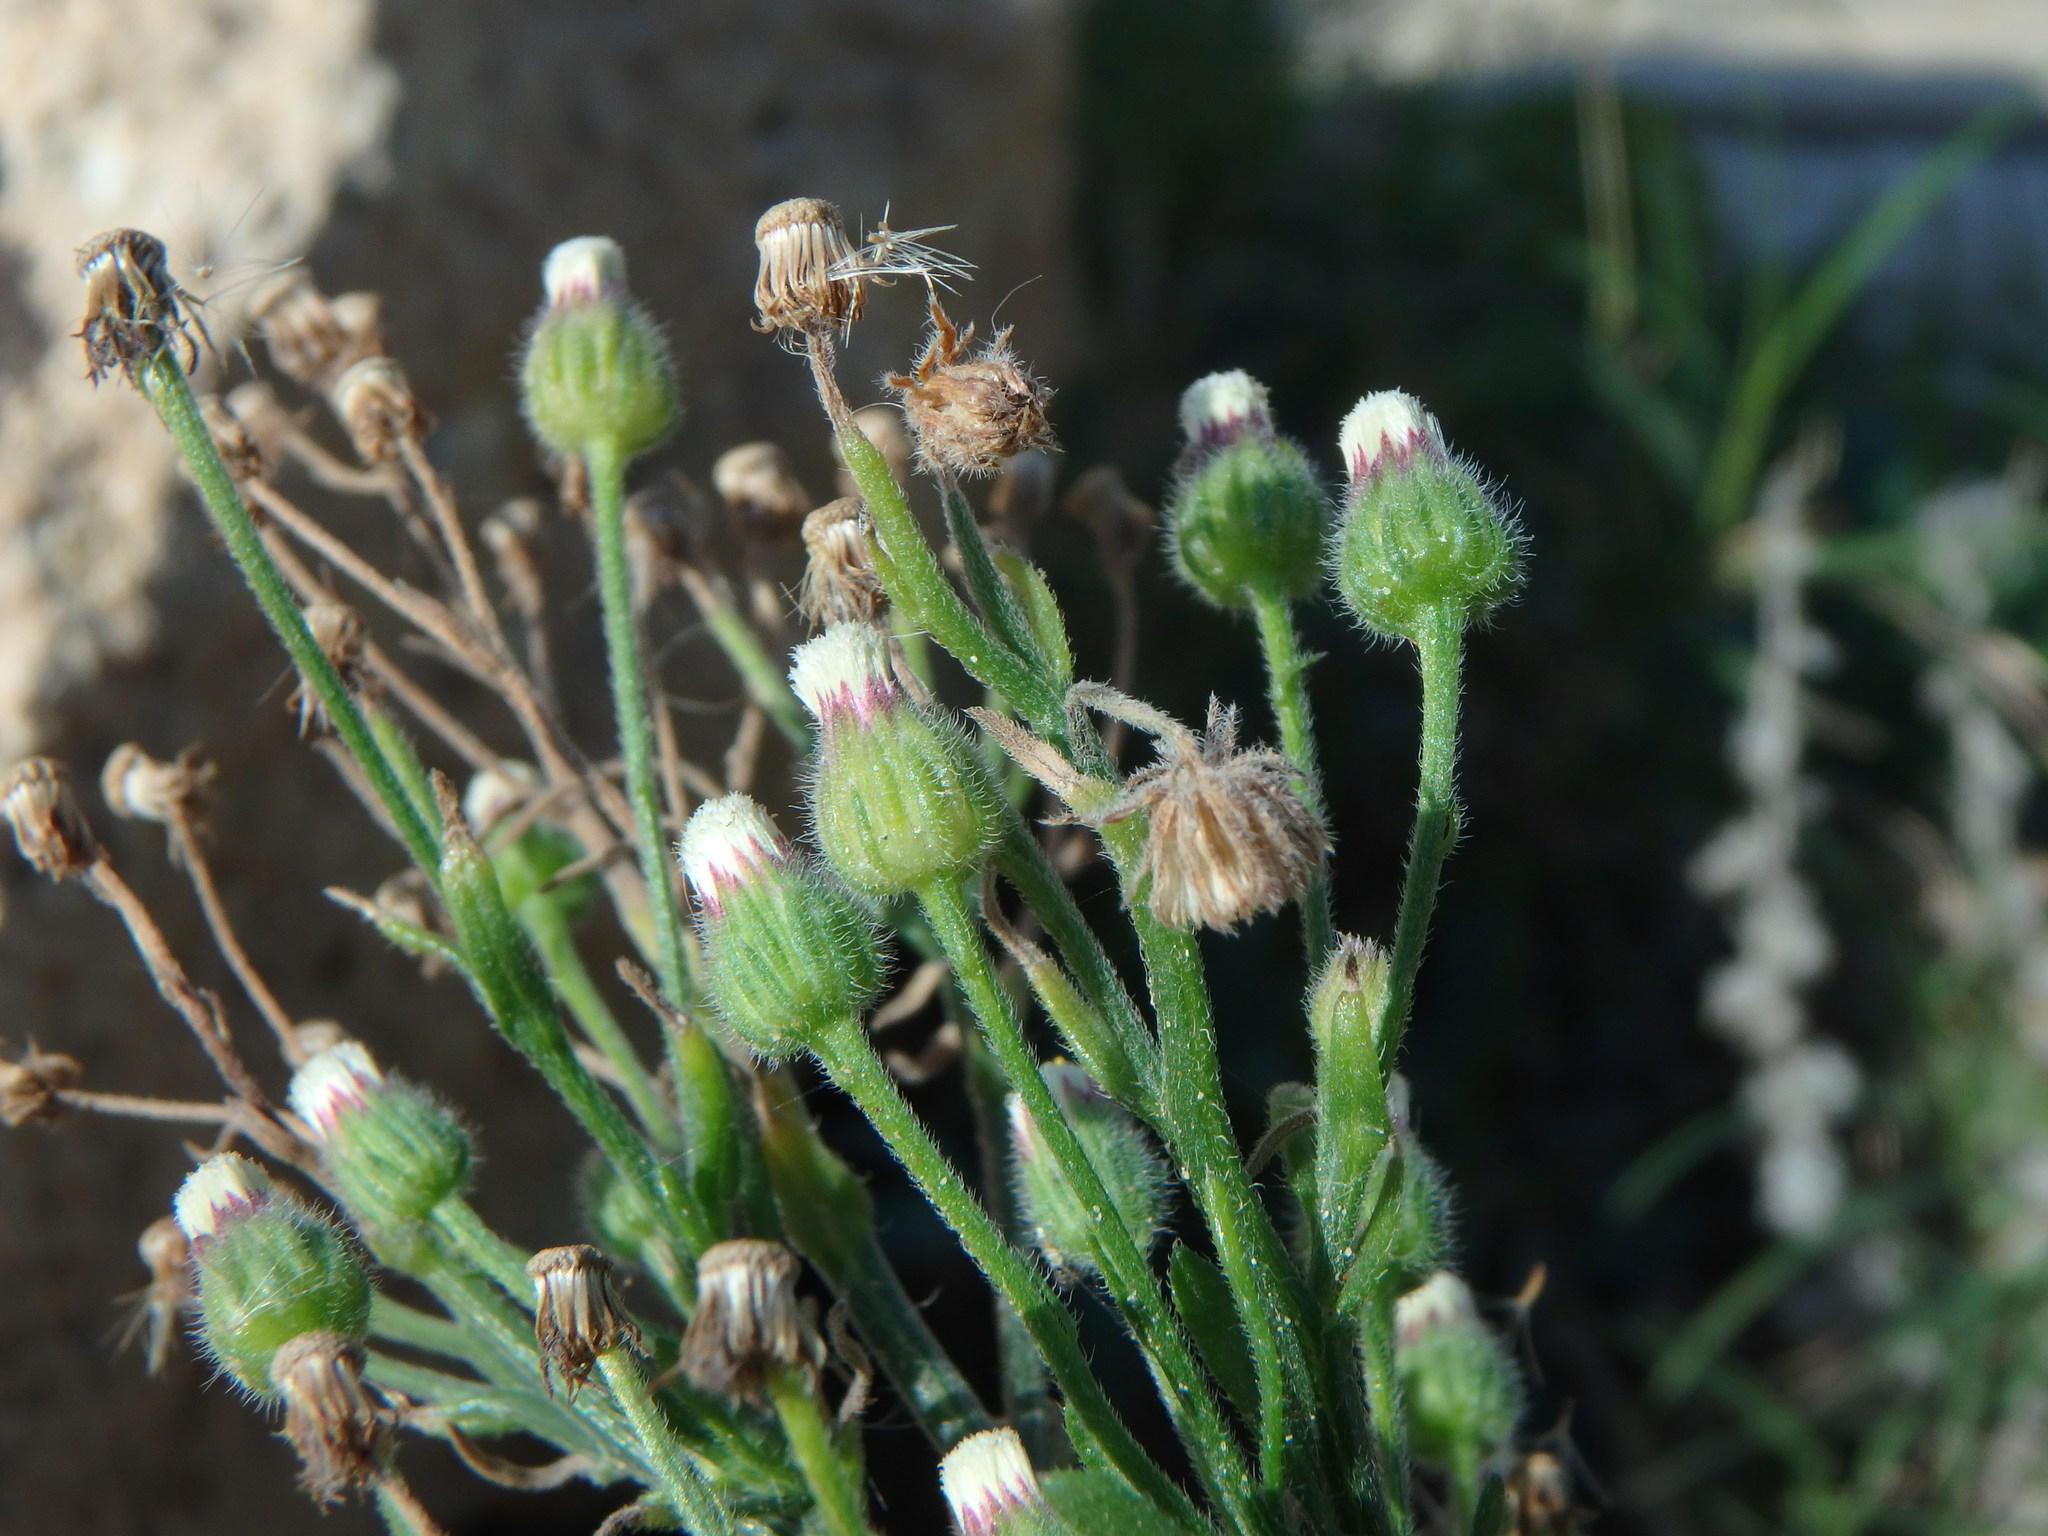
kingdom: Plantae
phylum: Tracheophyta
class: Magnoliopsida
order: Asterales
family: Asteraceae
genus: Erigeron
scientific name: Erigeron bonariensis
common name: Argentine fleabane
